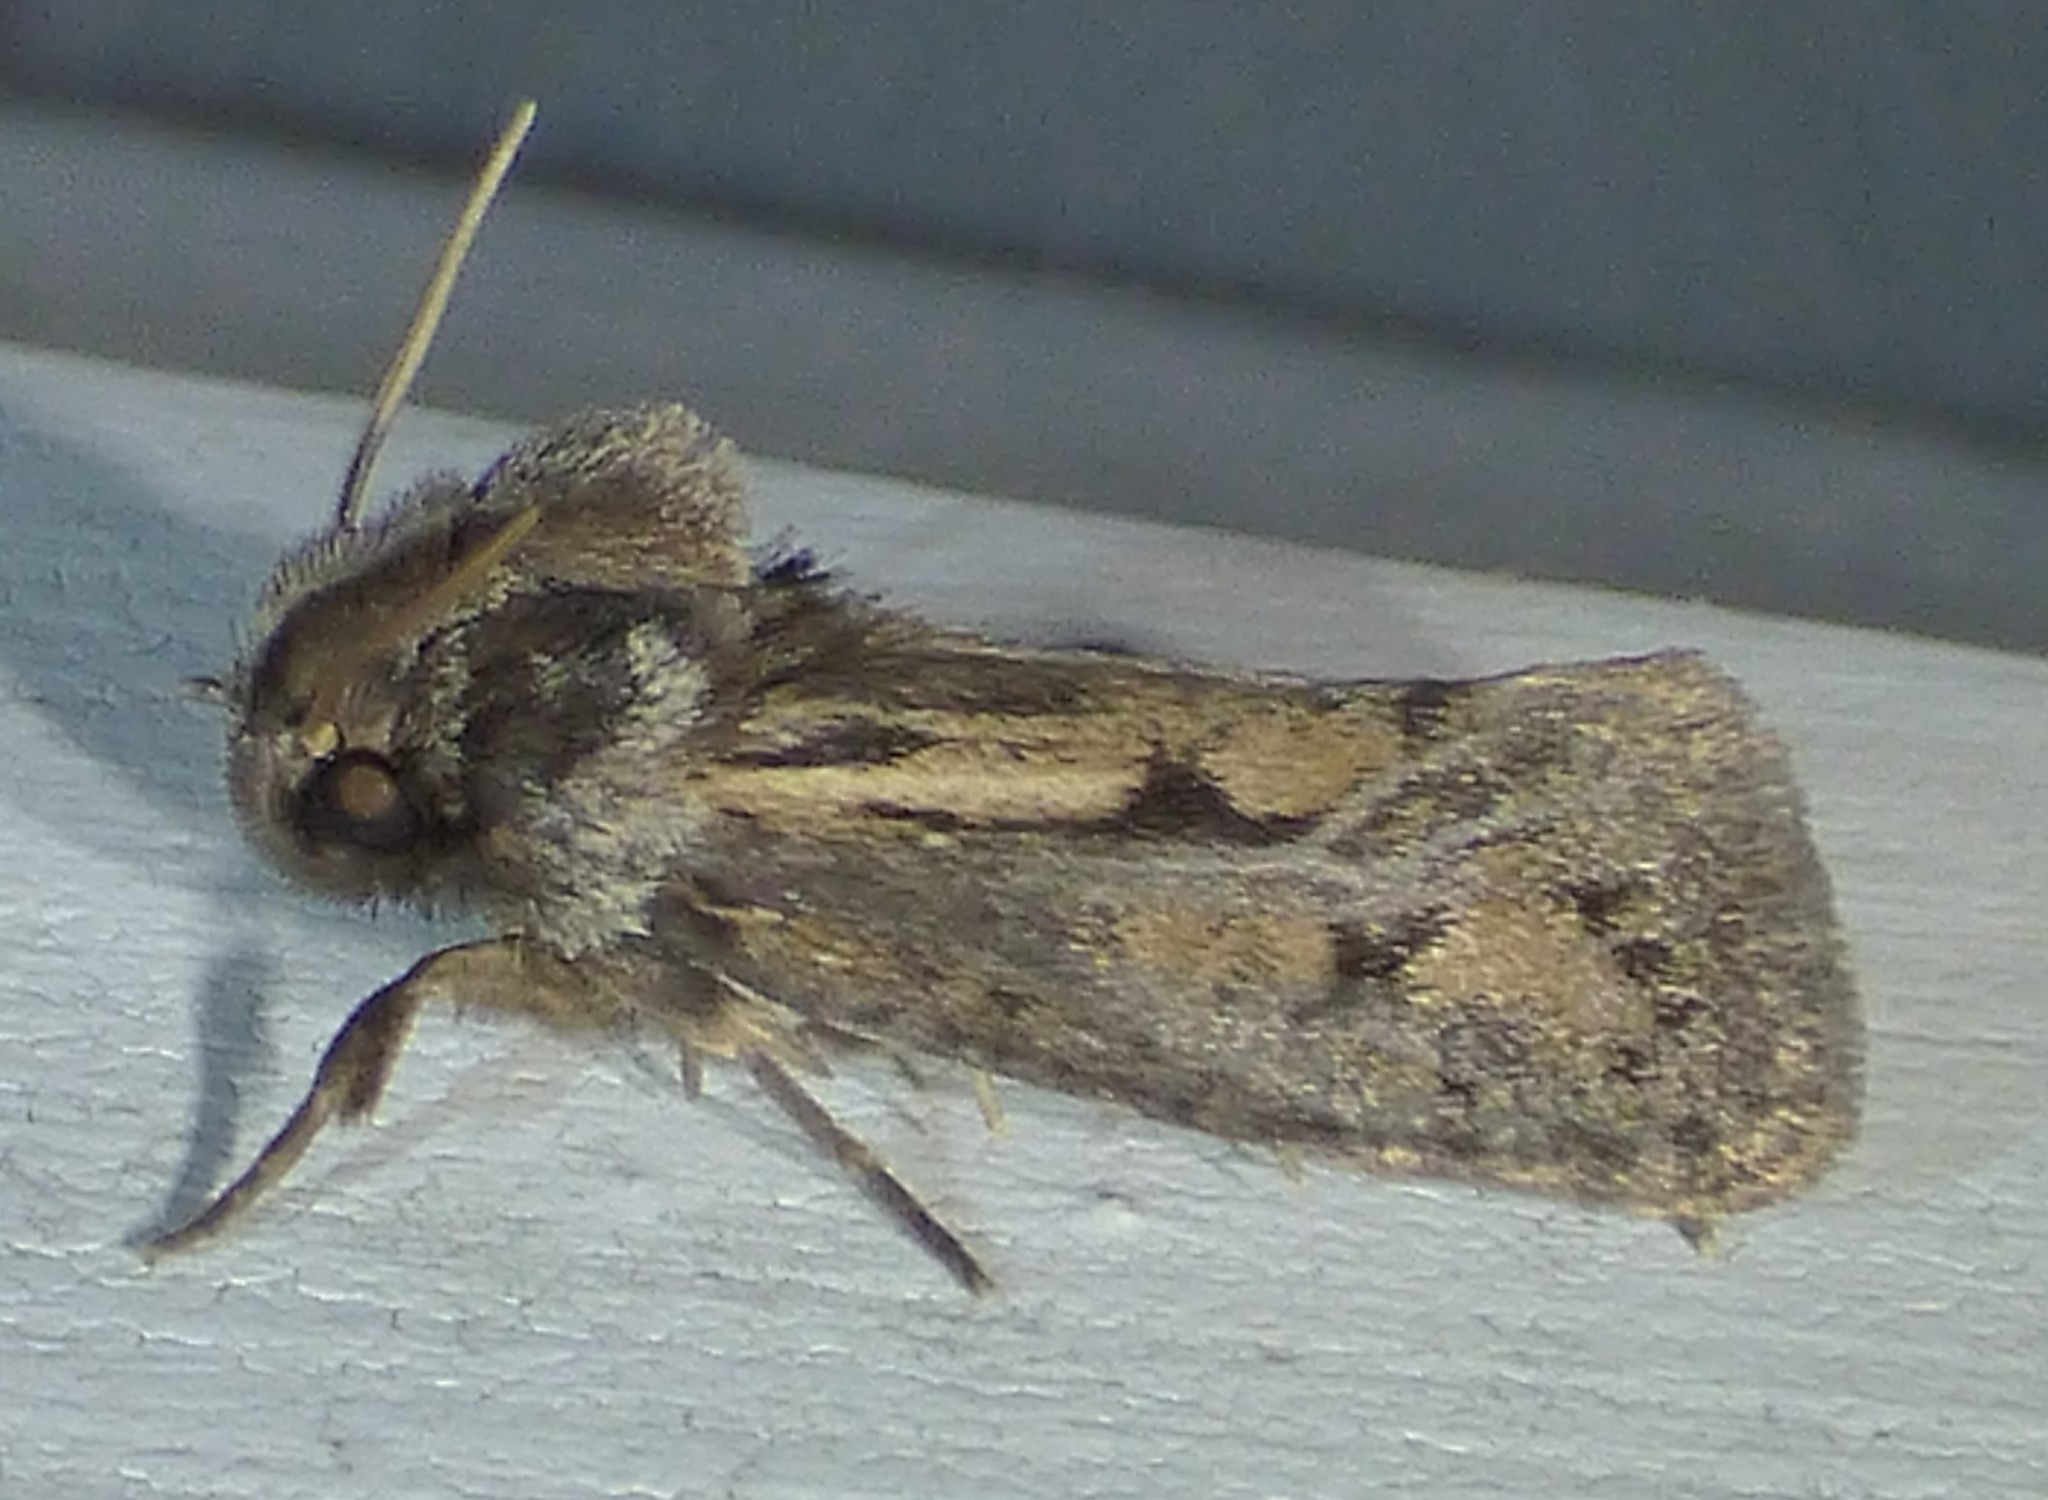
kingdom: Animalia
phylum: Arthropoda
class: Insecta
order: Lepidoptera
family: Tineidae
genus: Acrolophus
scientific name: Acrolophus popeanella
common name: Clemens' grass tubeworm moth
